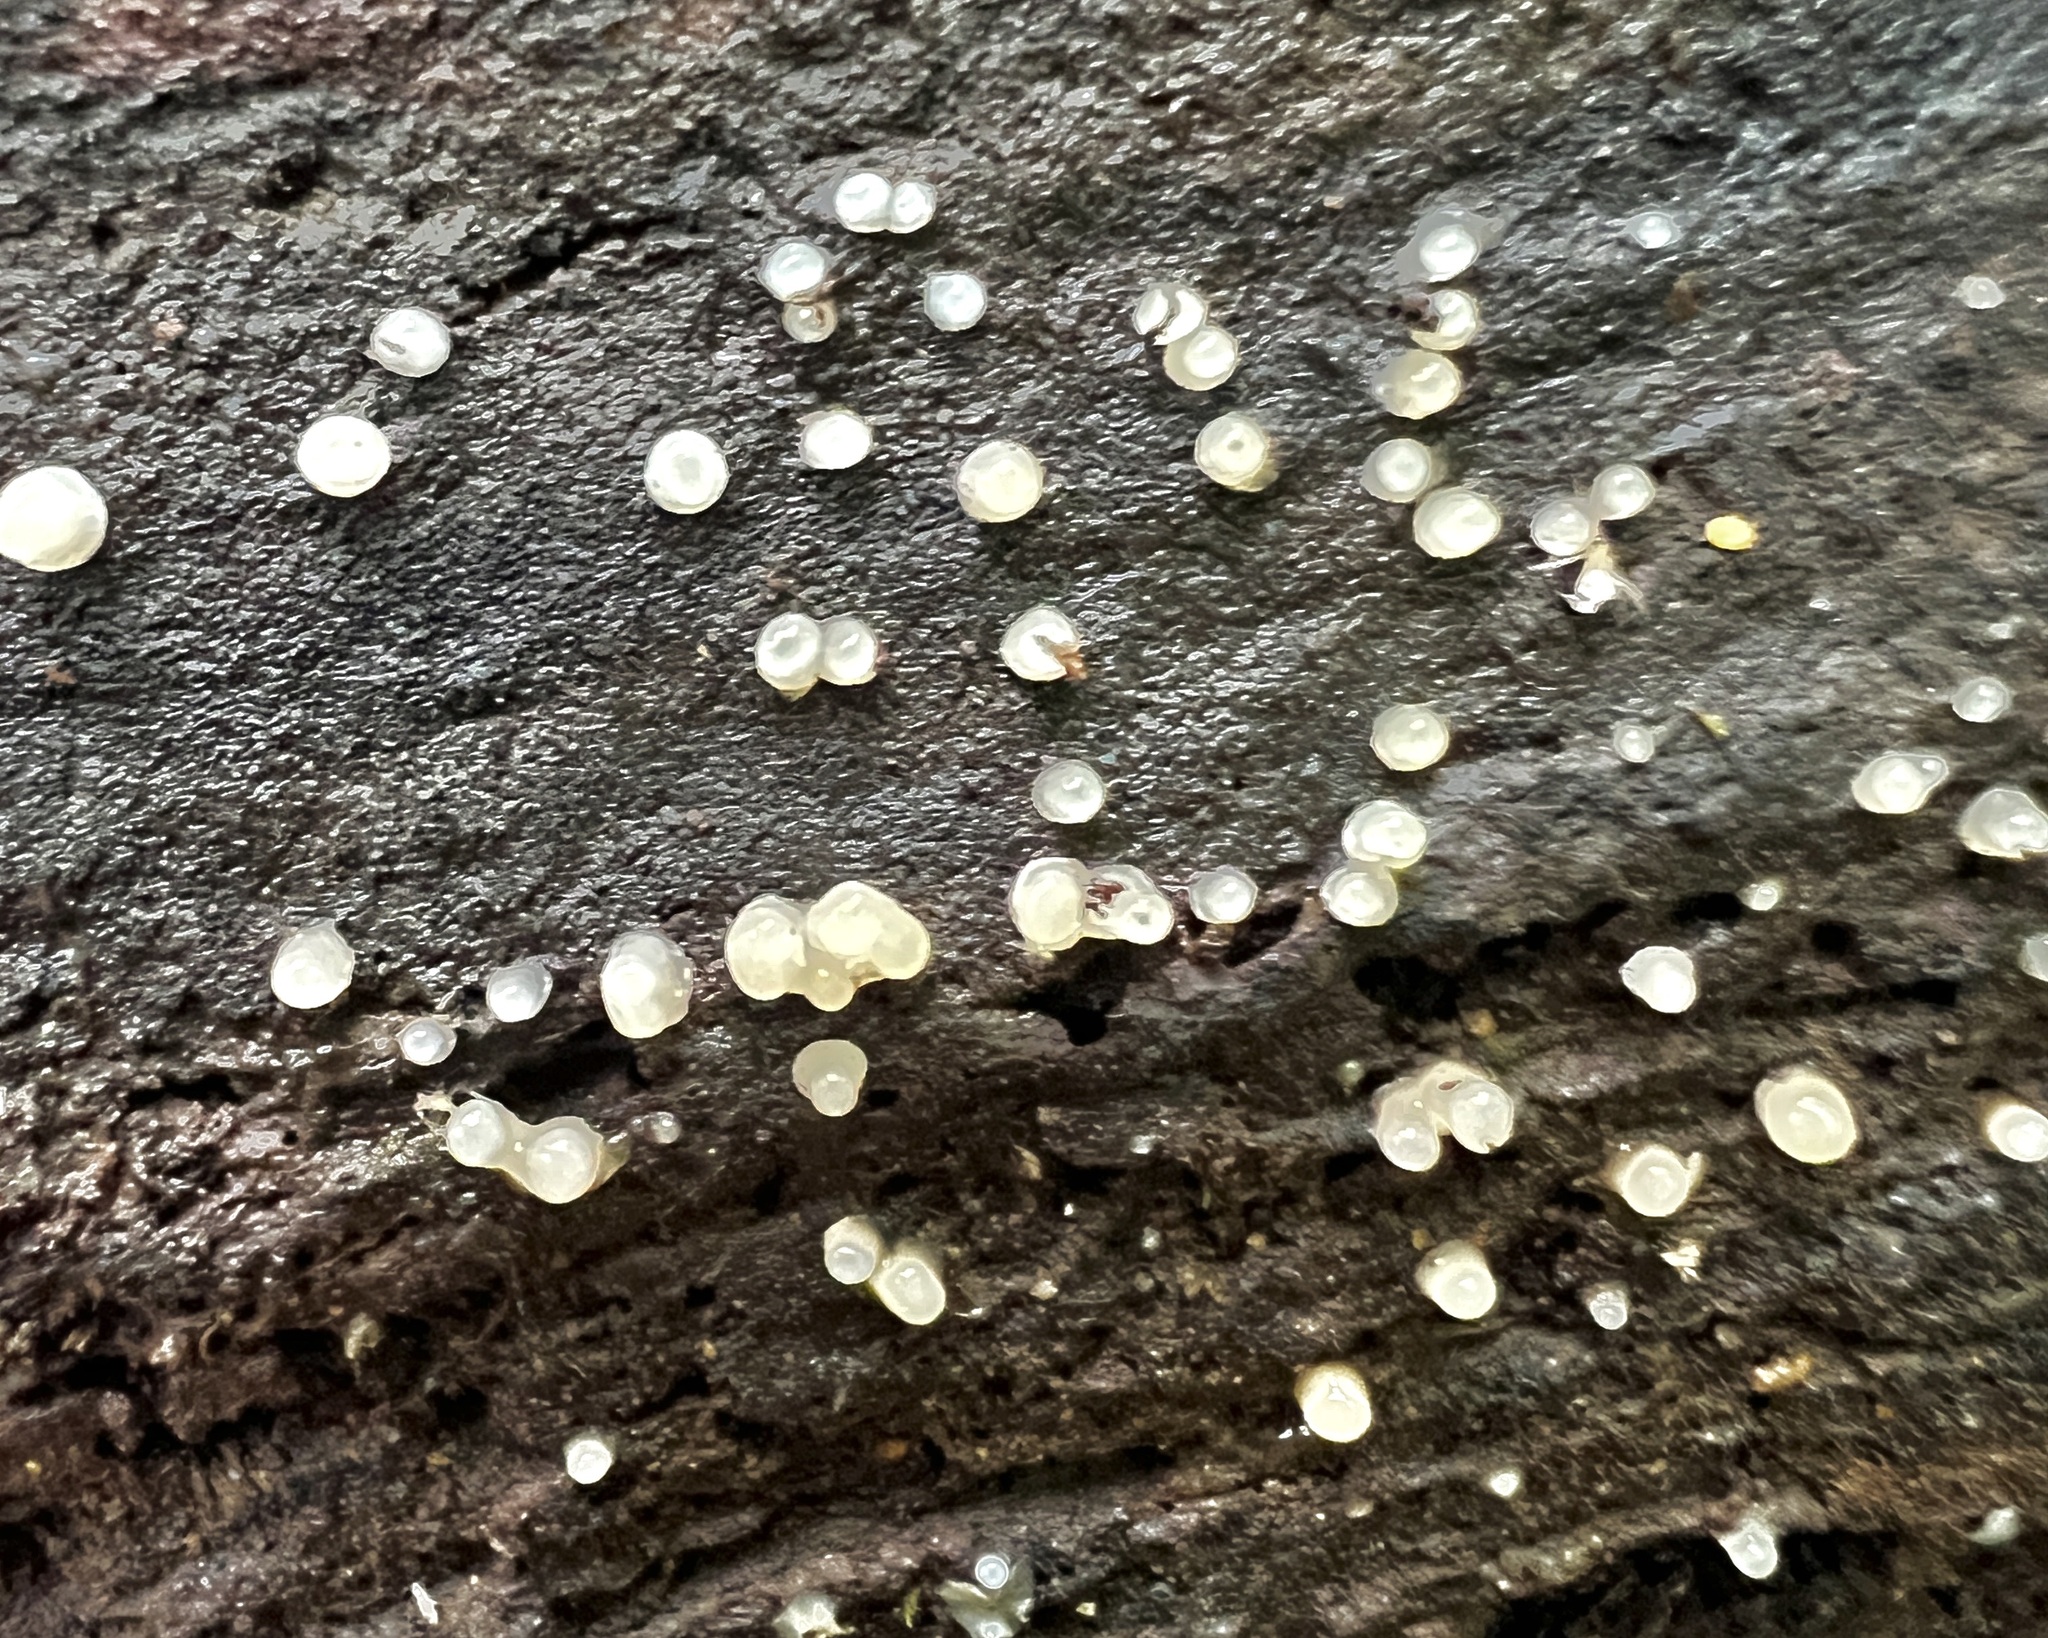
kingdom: Fungi
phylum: Basidiomycota
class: Atractiellomycetes
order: Atractiellales
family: Phleogenaceae
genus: Helicogloea
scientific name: Helicogloea compressa
